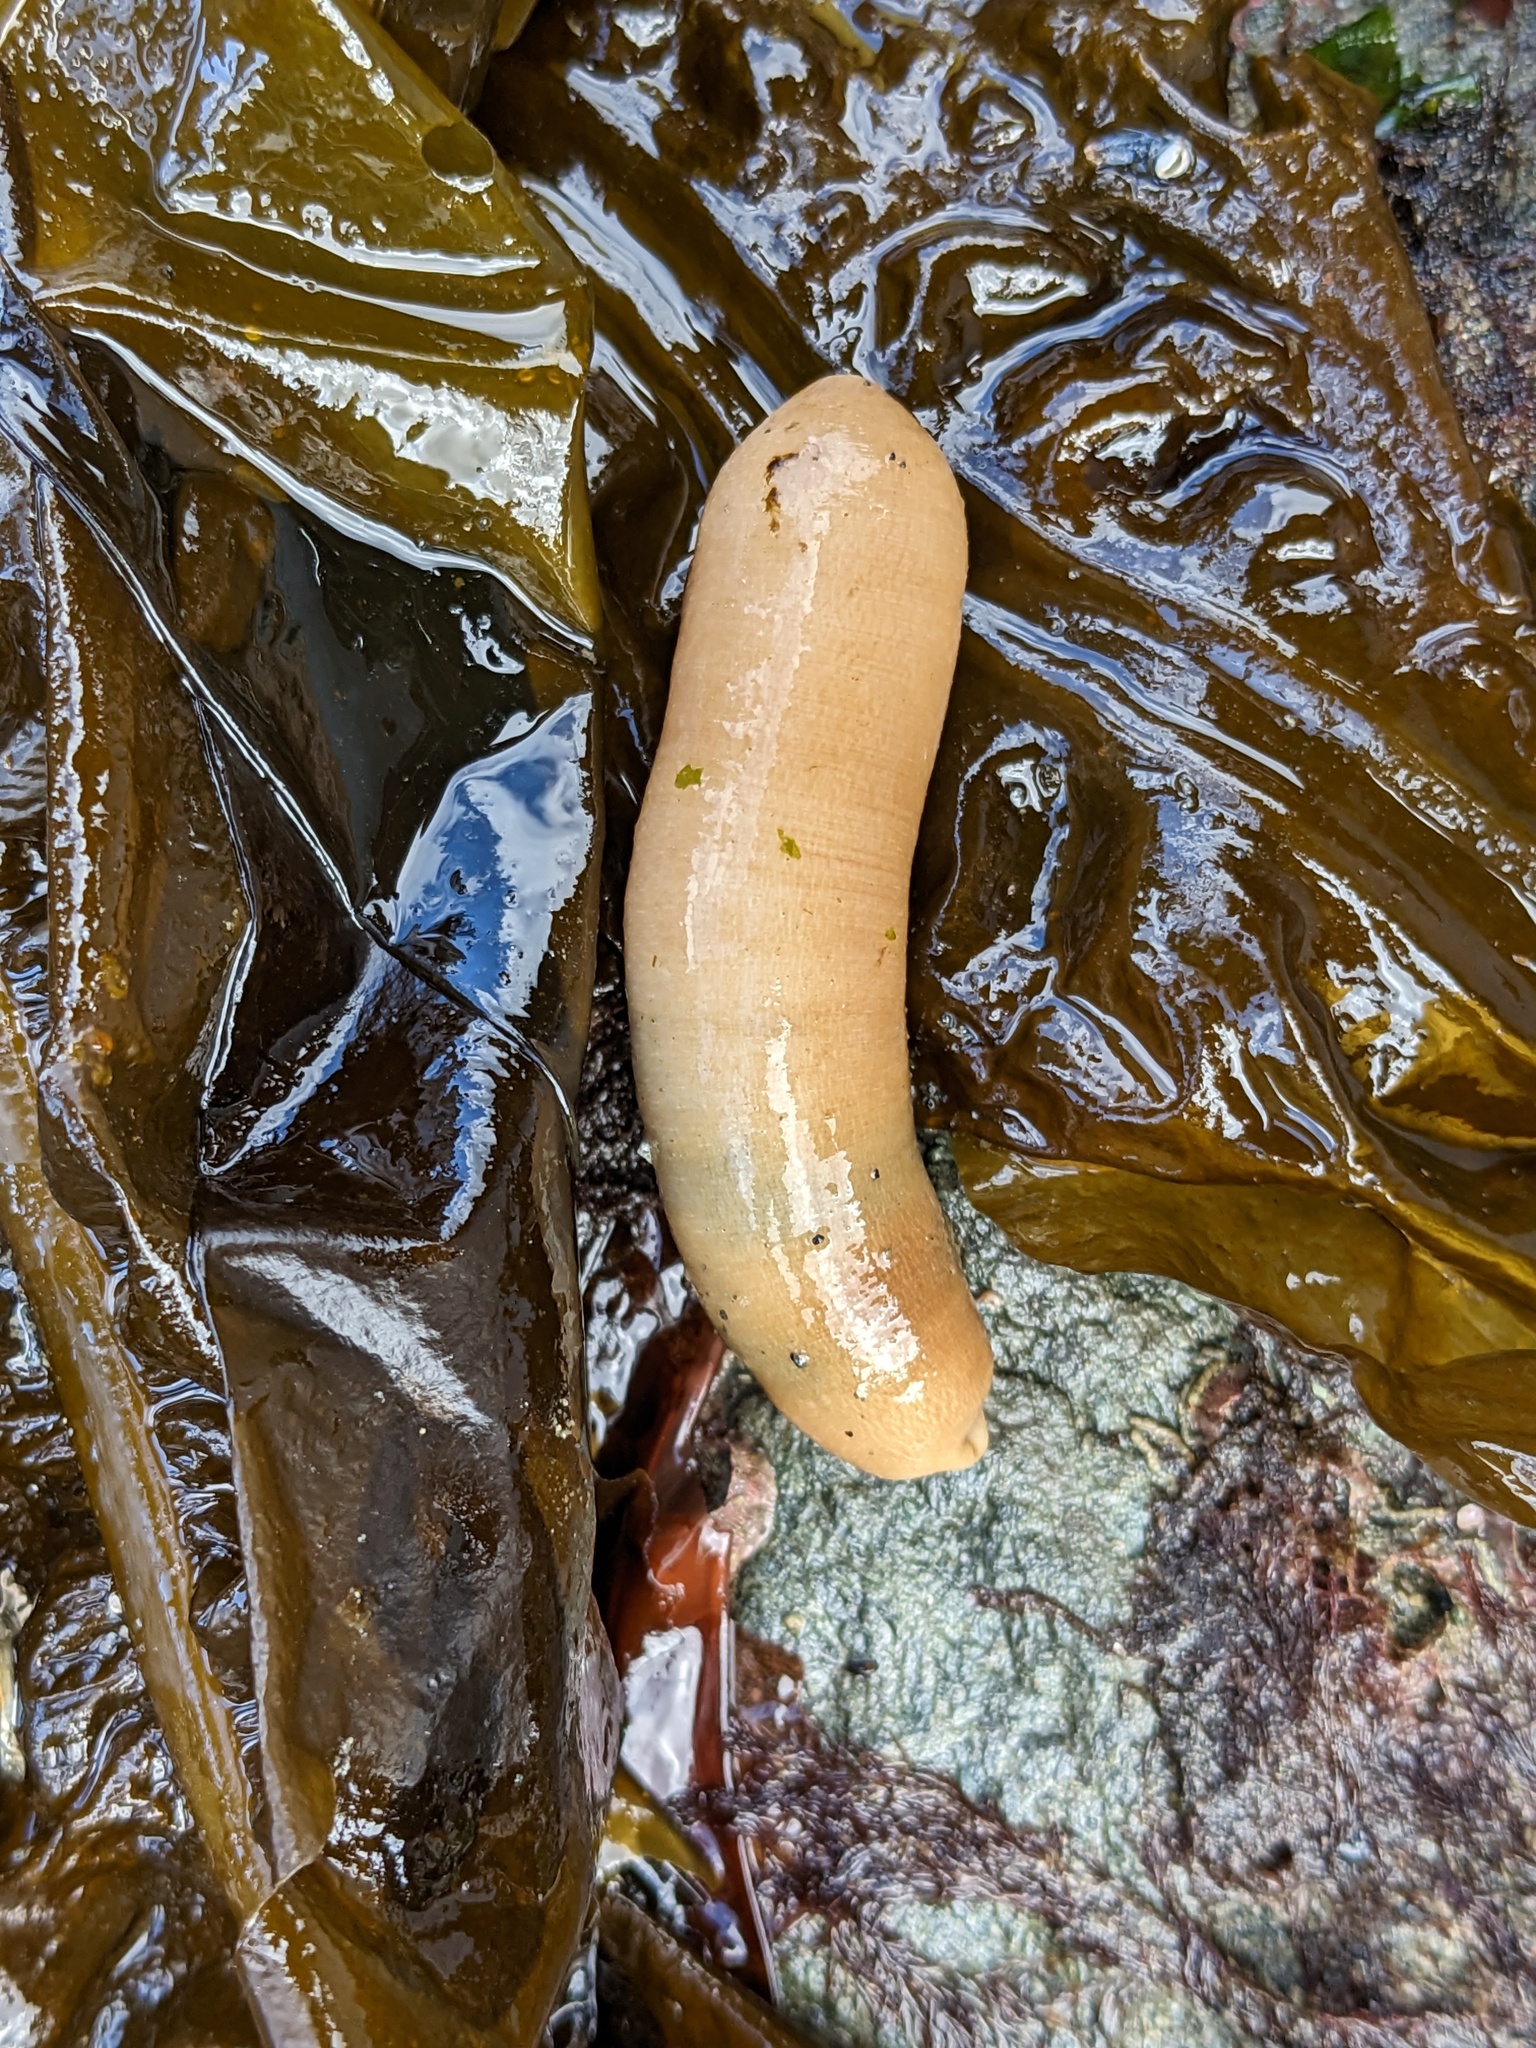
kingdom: Animalia
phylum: Sipuncula
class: Phascolosomatidea
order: Phascolosomatiformes
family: Phascolosomatidae
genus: Phascolosoma
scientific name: Phascolosoma agassizii
